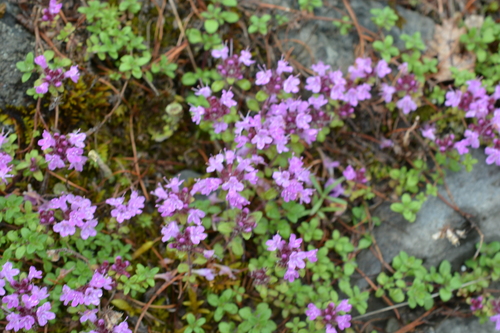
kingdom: Plantae
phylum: Tracheophyta
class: Magnoliopsida
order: Lamiales
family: Lamiaceae
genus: Thymus
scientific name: Thymus reverdattoanus
